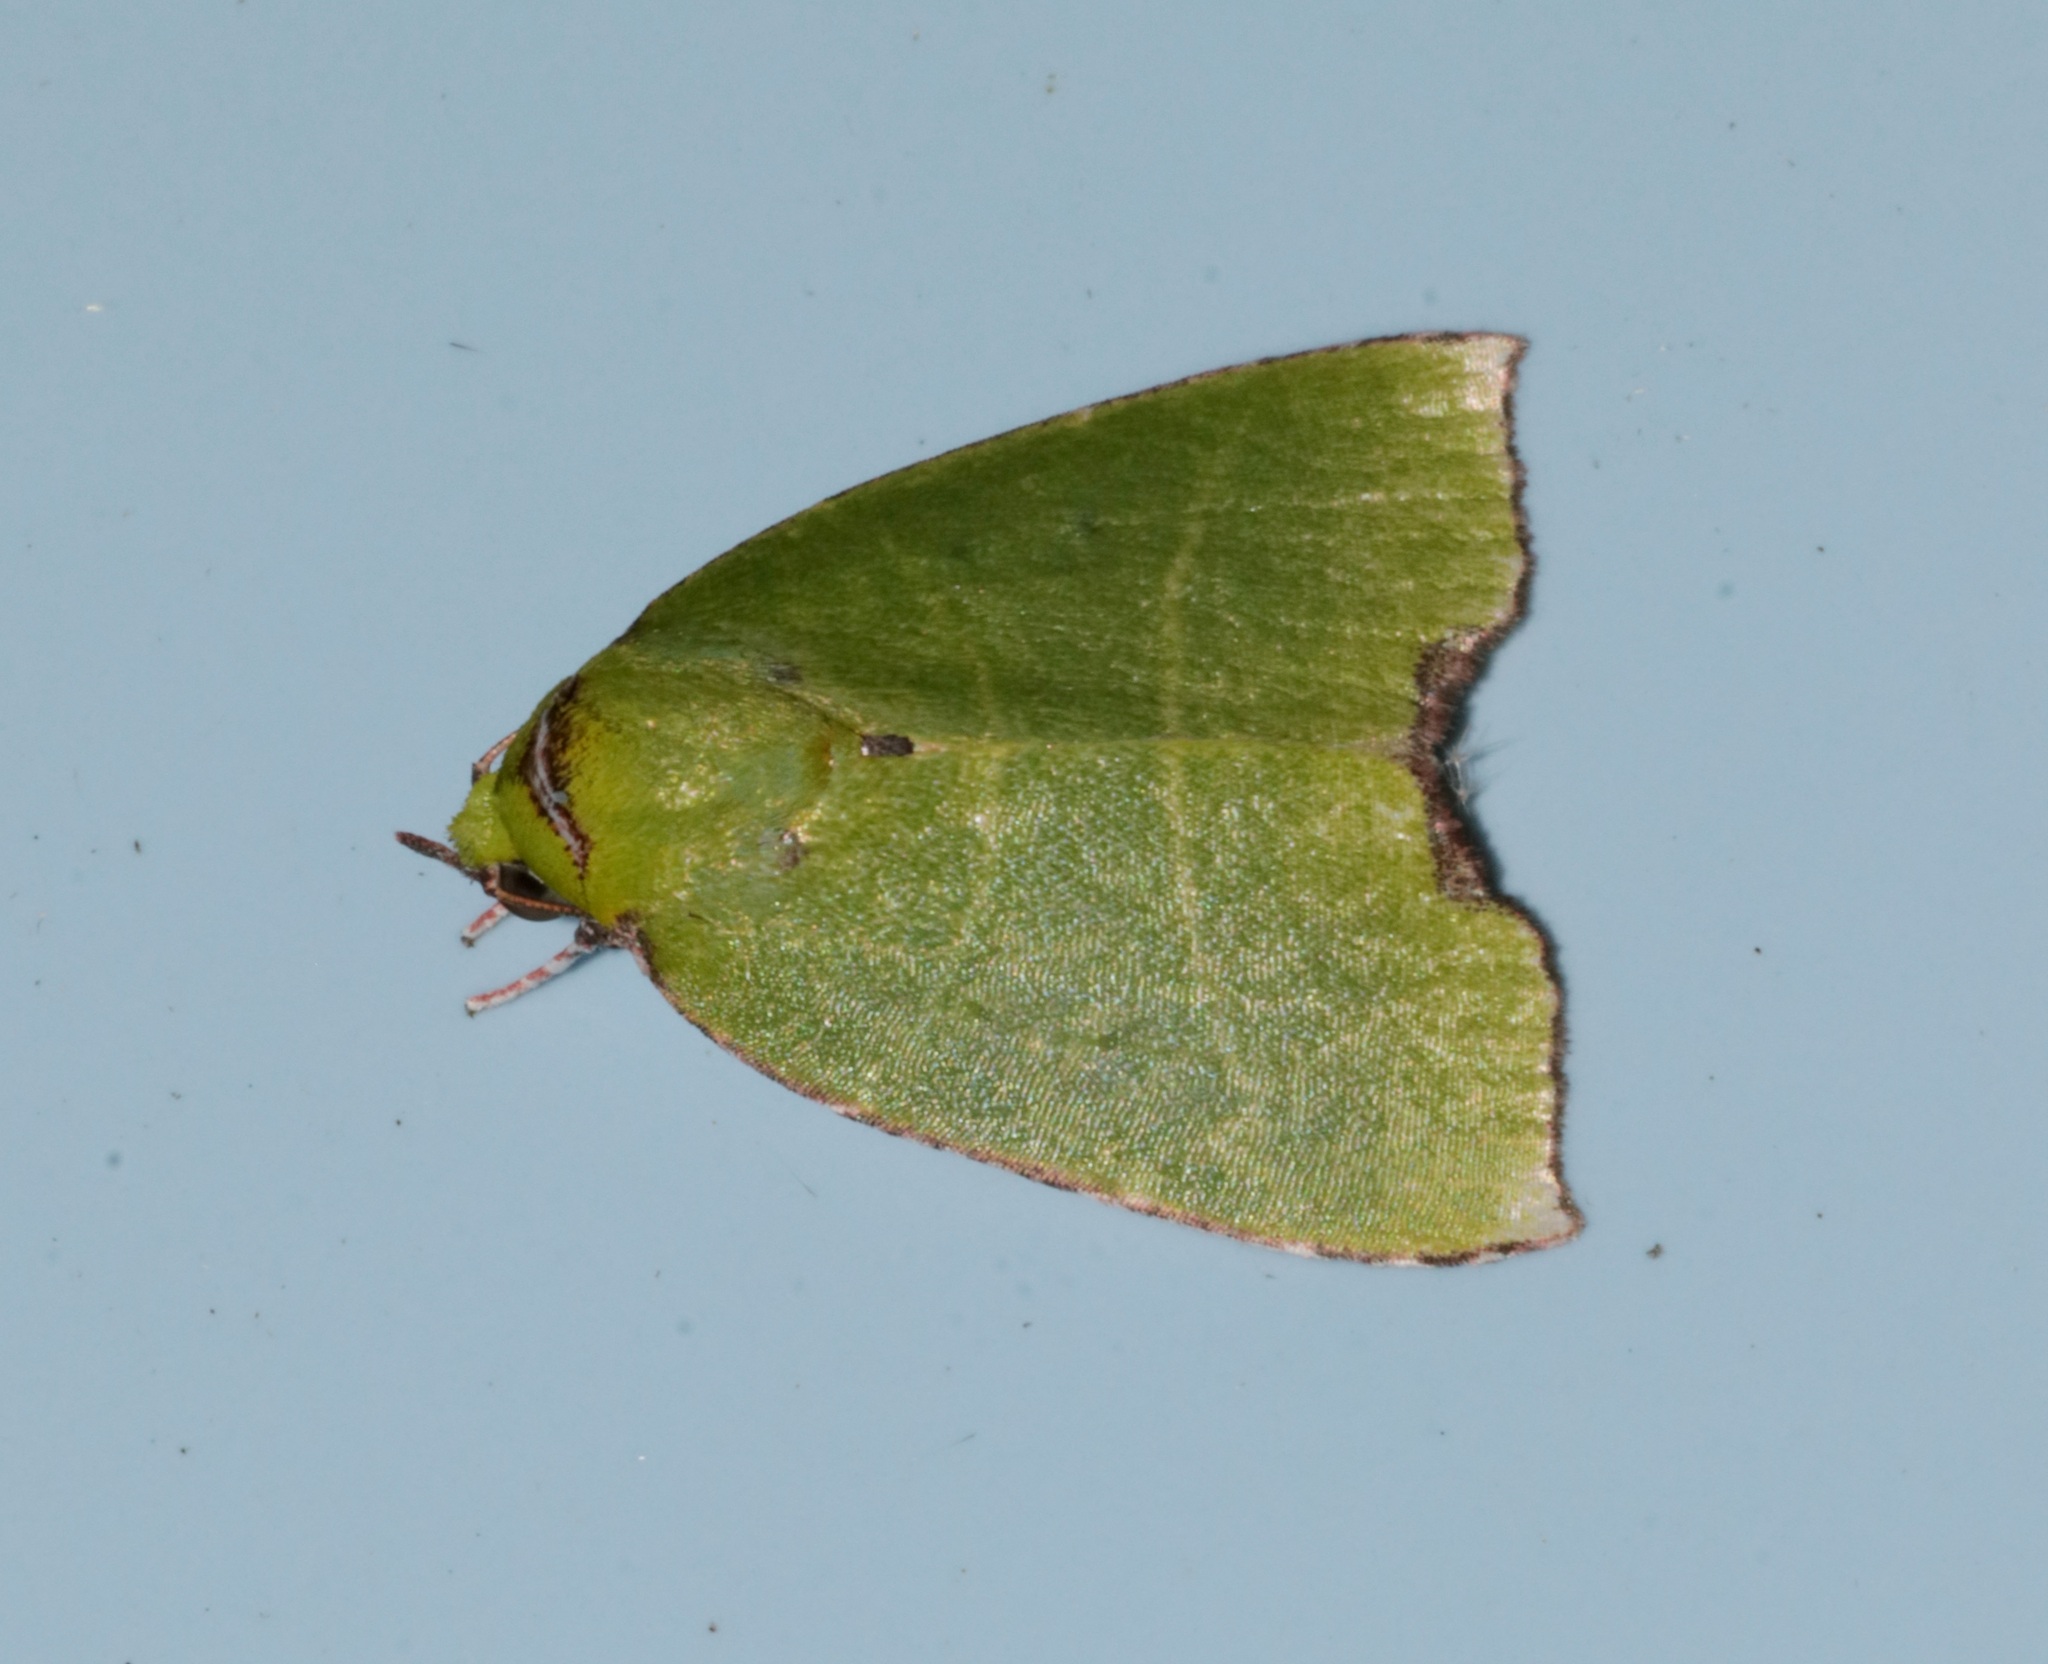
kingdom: Animalia
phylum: Arthropoda
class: Insecta
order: Lepidoptera
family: Nolidae
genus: Paracrama
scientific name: Paracrama angulata
